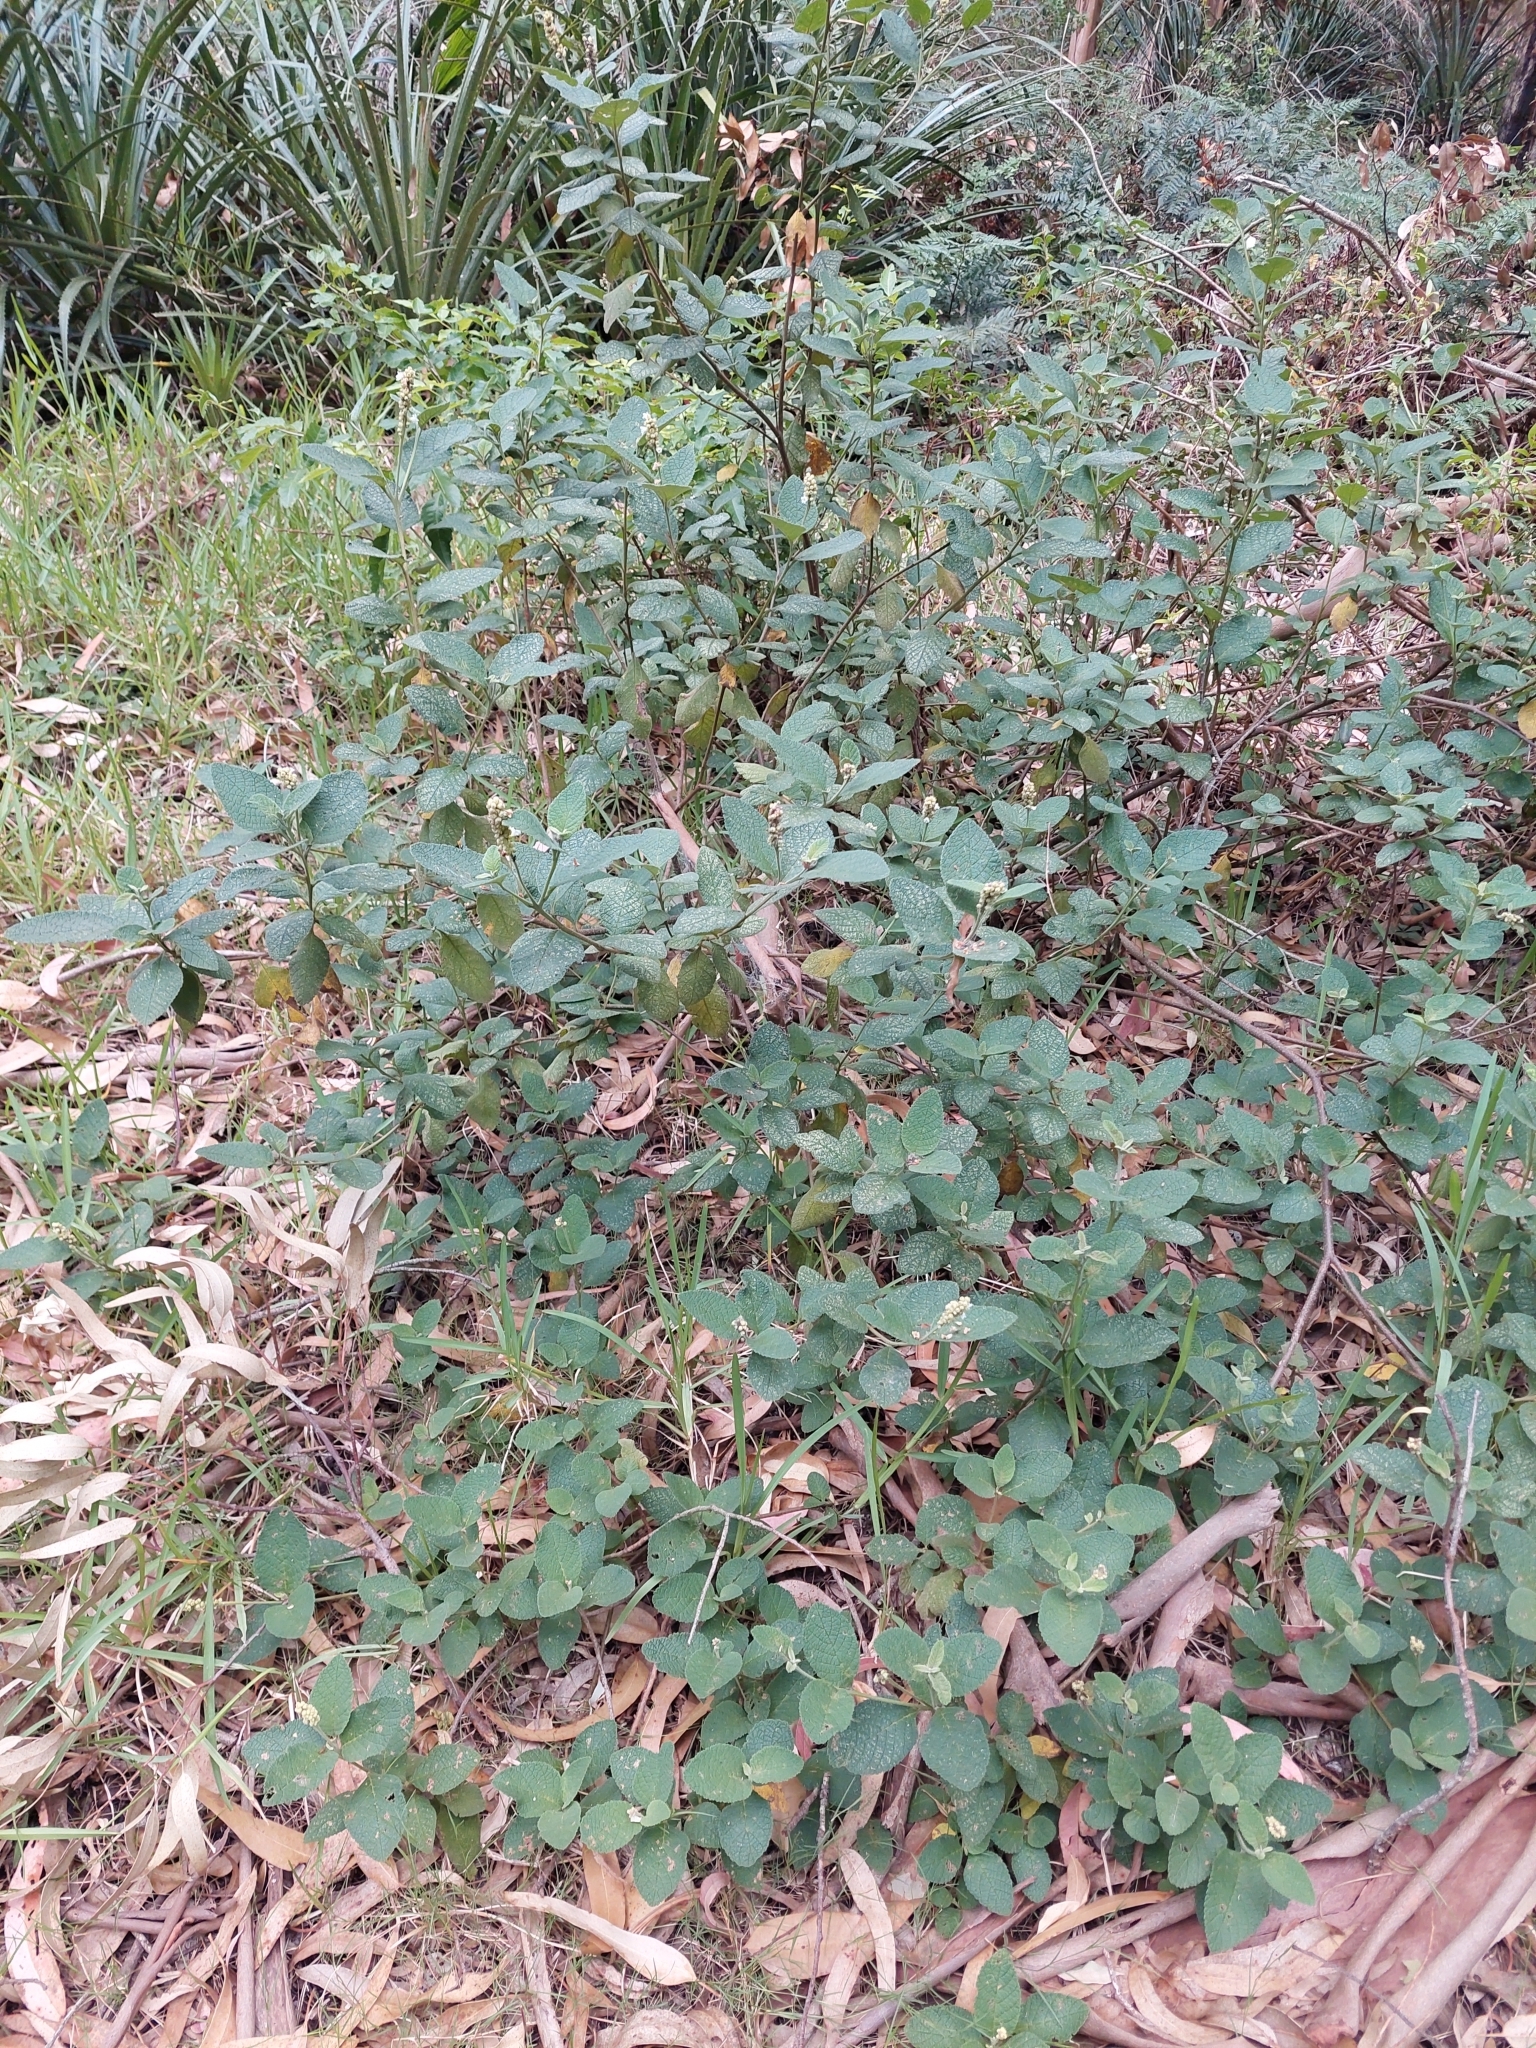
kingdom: Plantae
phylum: Tracheophyta
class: Magnoliopsida
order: Boraginales
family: Cordiaceae
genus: Varronia
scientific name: Varronia curassavica
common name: Black sage
